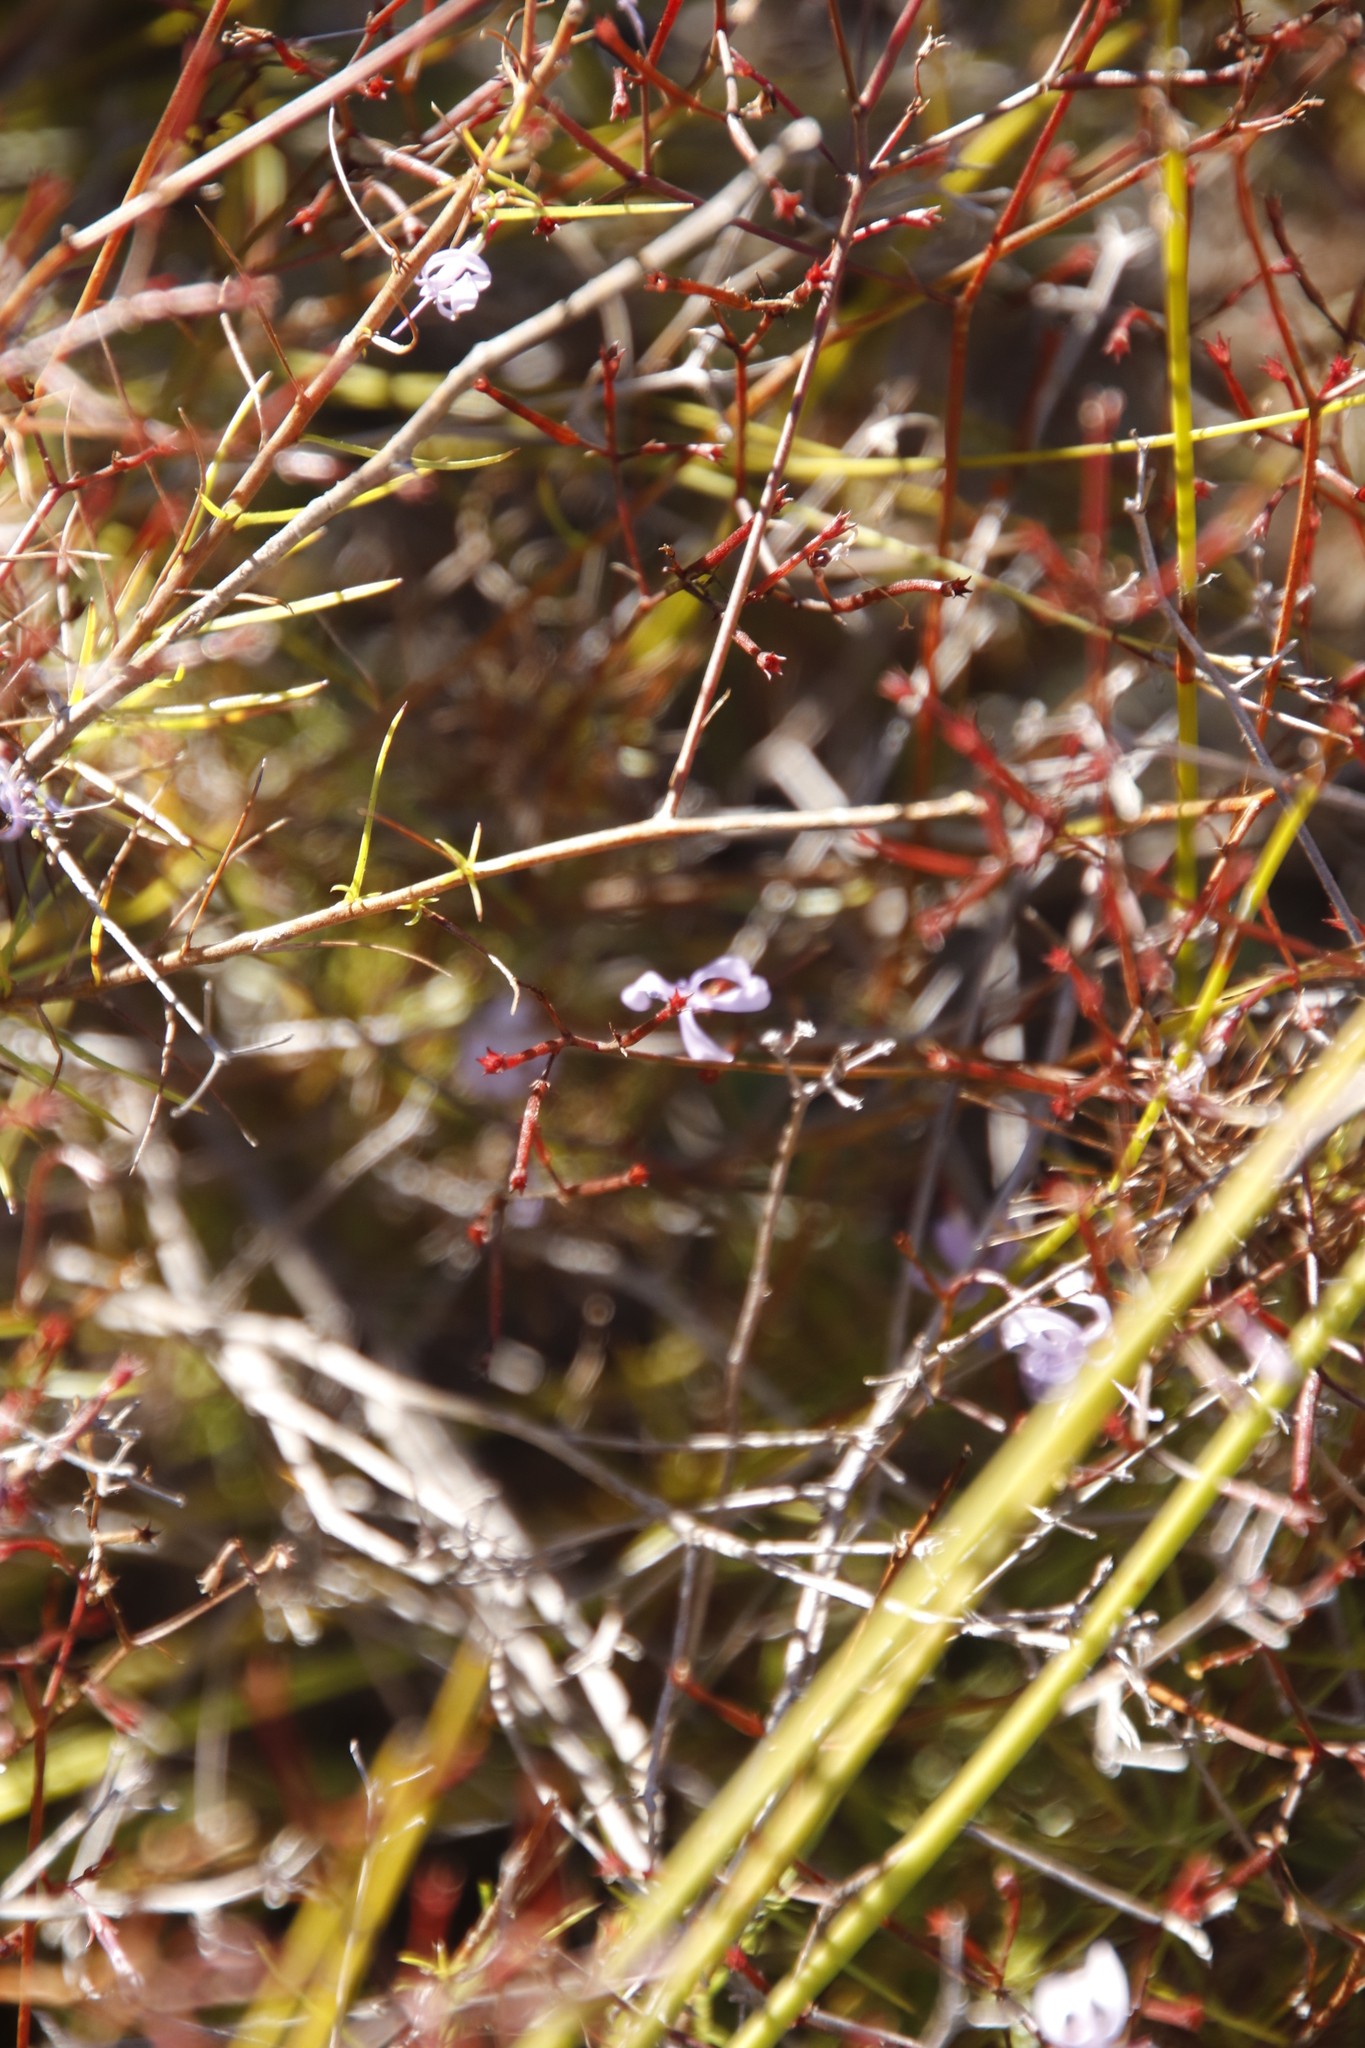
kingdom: Plantae
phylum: Tracheophyta
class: Magnoliopsida
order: Asterales
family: Campanulaceae
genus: Prismatocarpus
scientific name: Prismatocarpus diffusus
